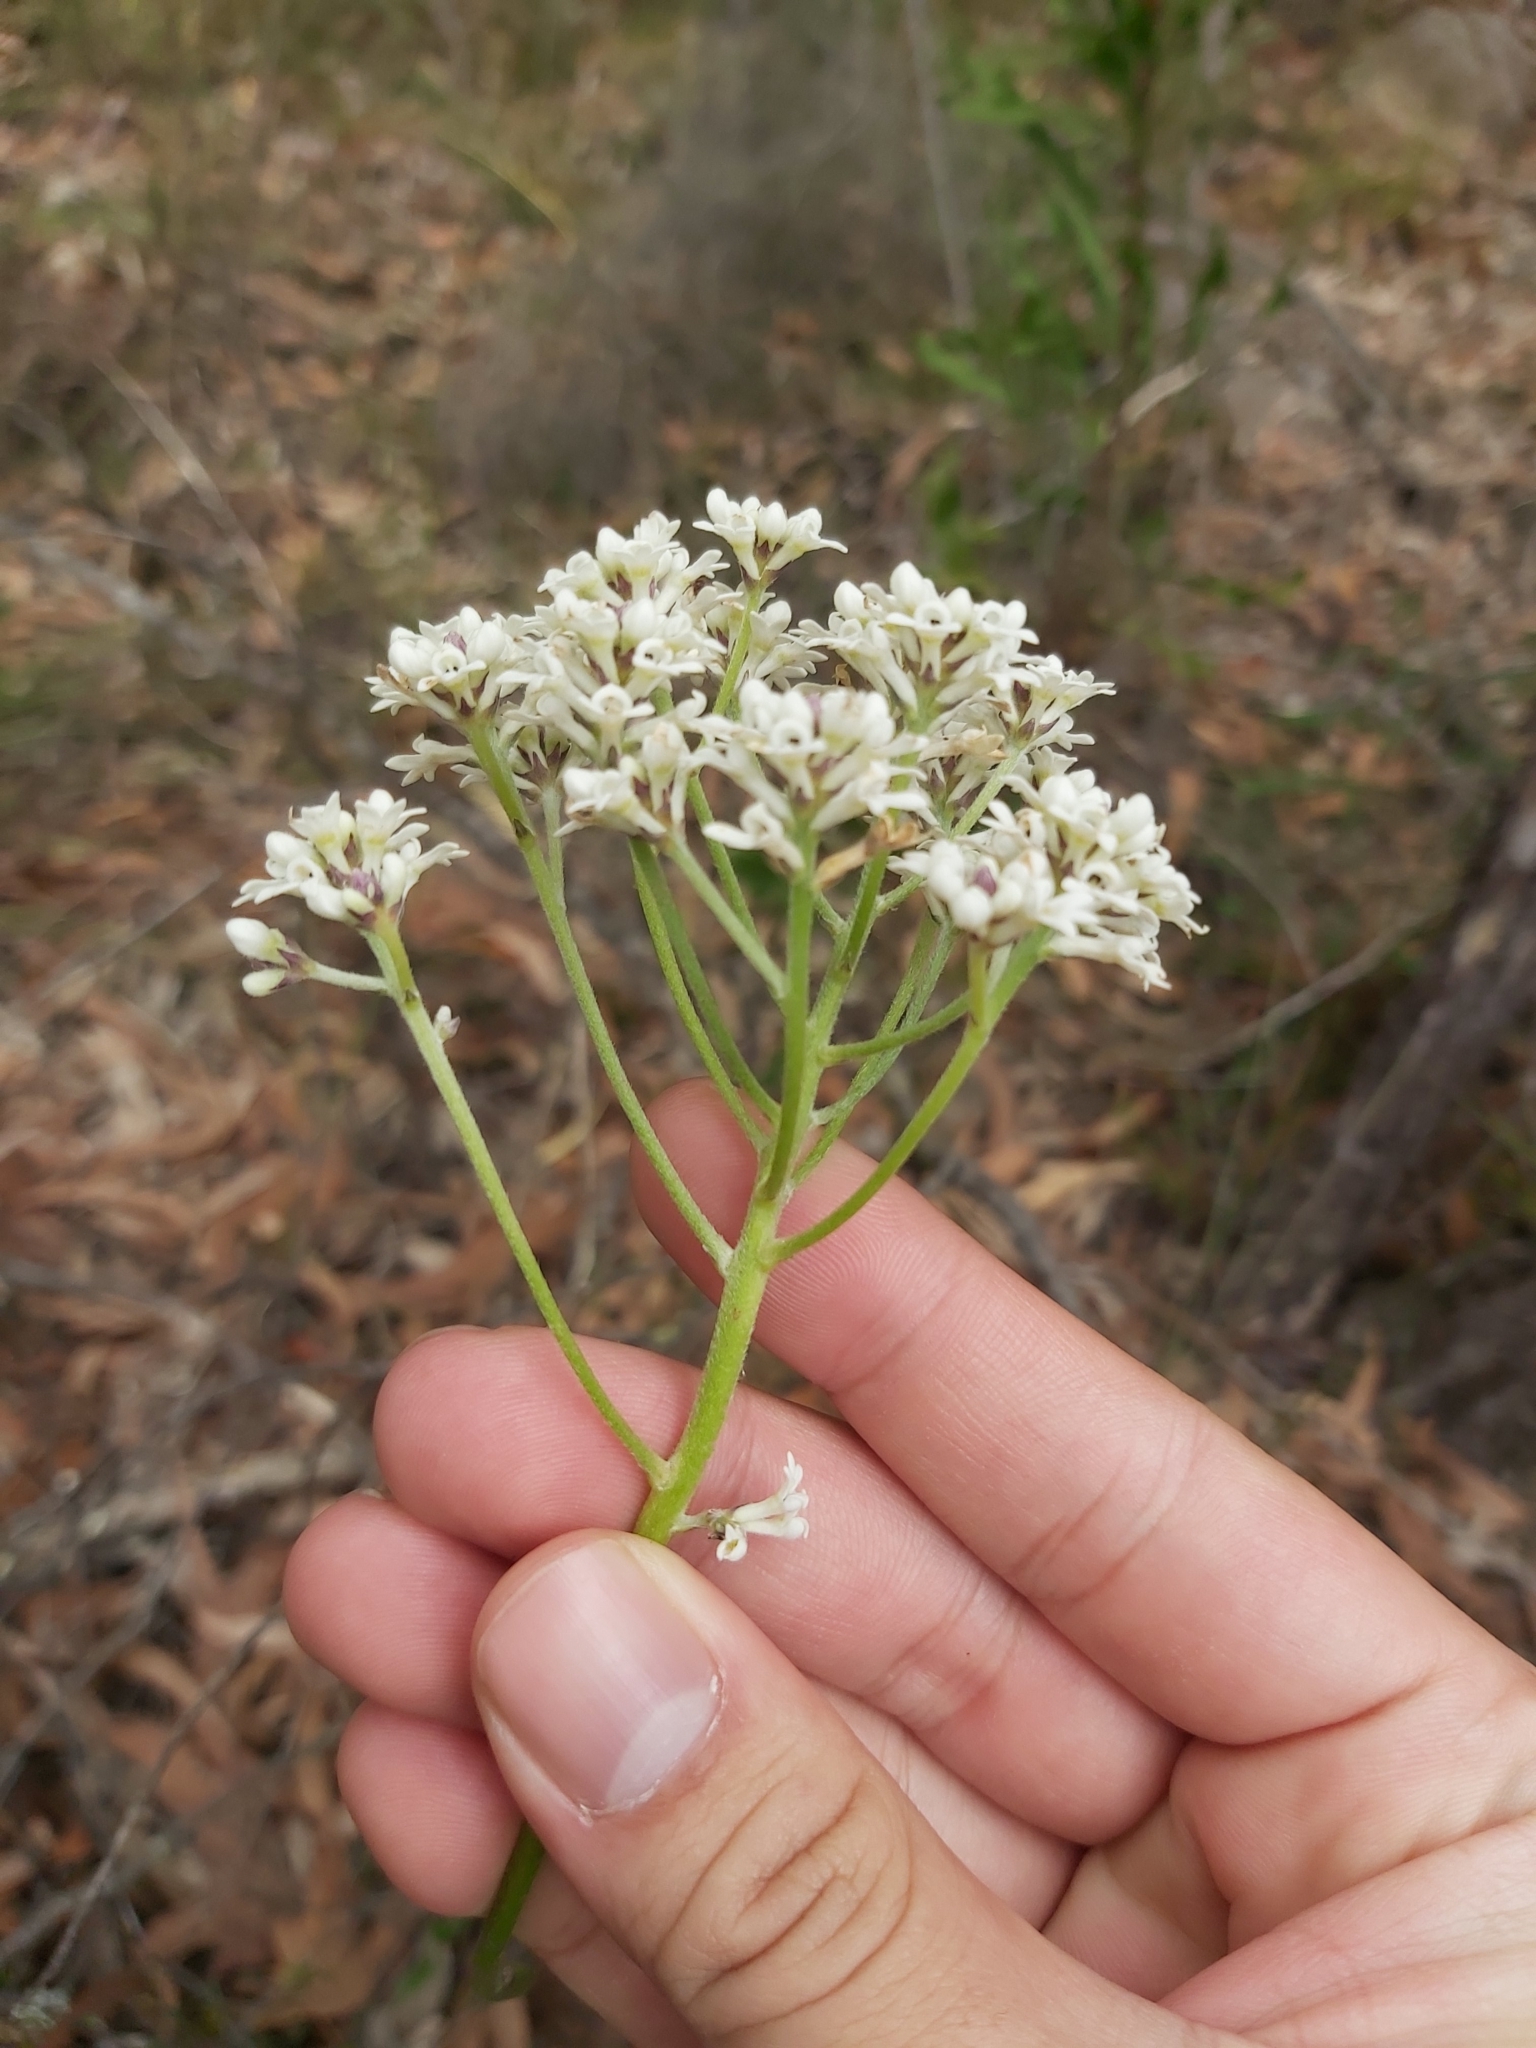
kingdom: Plantae
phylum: Tracheophyta
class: Magnoliopsida
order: Proteales
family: Proteaceae
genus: Conospermum
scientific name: Conospermum longifolium
